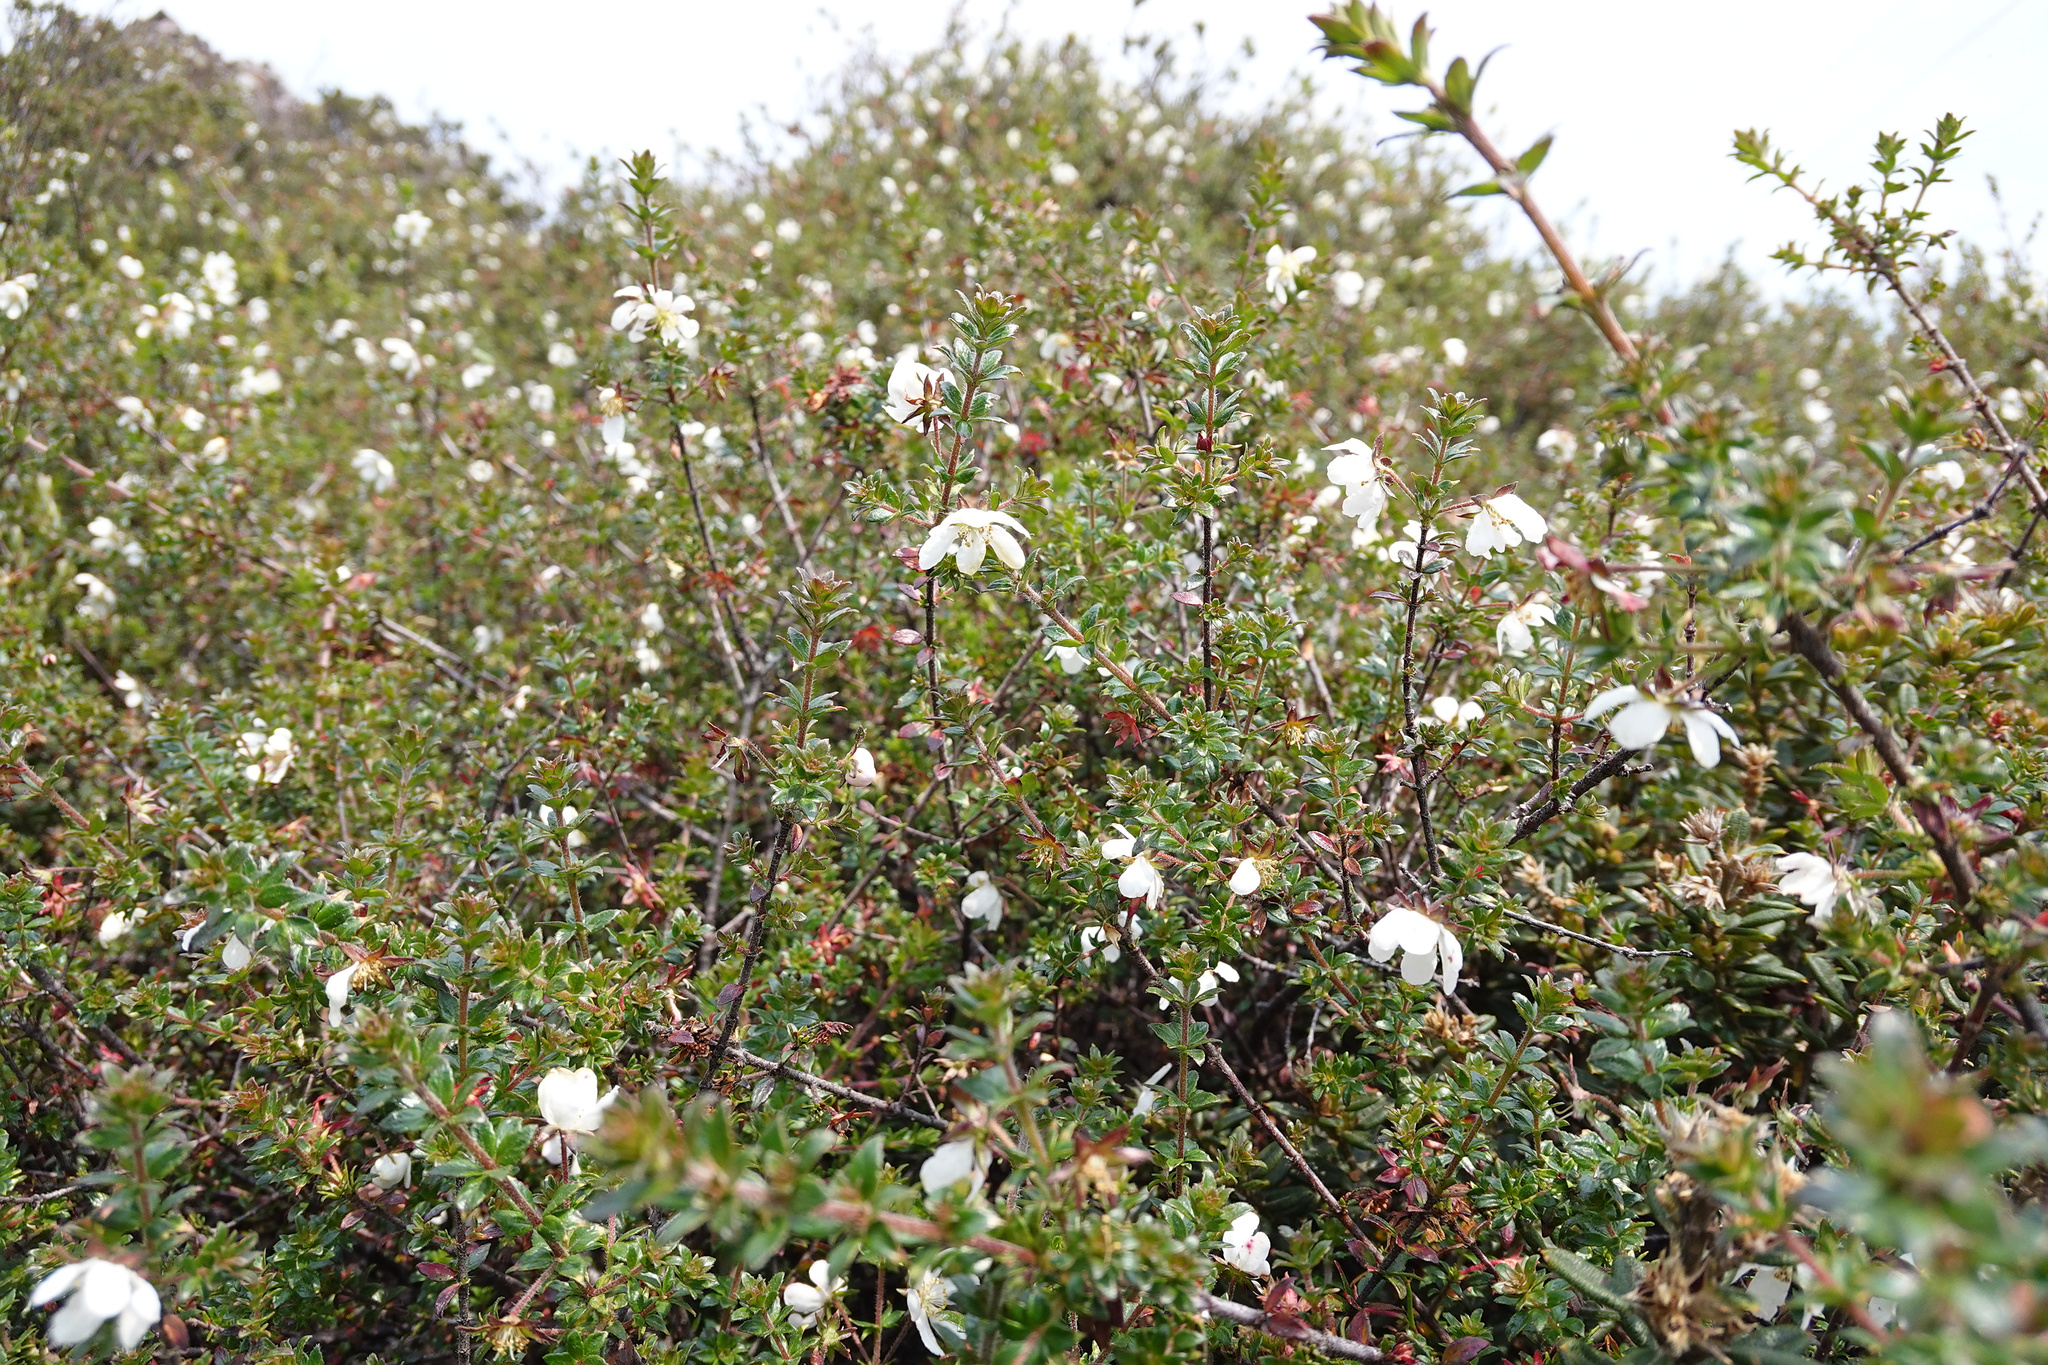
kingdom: Plantae
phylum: Tracheophyta
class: Magnoliopsida
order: Oxalidales
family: Cunoniaceae
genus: Bauera
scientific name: Bauera rubioides
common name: River-rose
